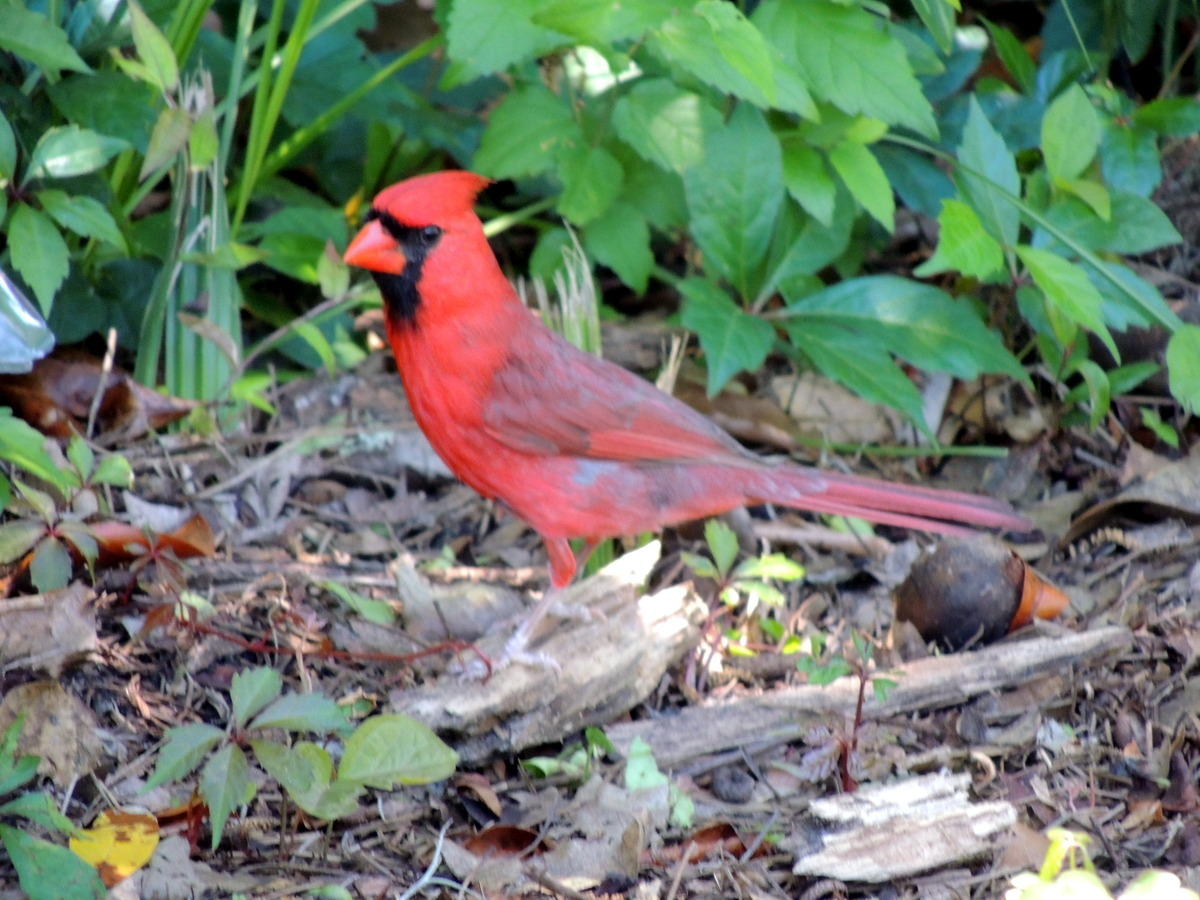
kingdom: Animalia
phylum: Chordata
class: Aves
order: Passeriformes
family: Cardinalidae
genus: Cardinalis
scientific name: Cardinalis cardinalis
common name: Northern cardinal
